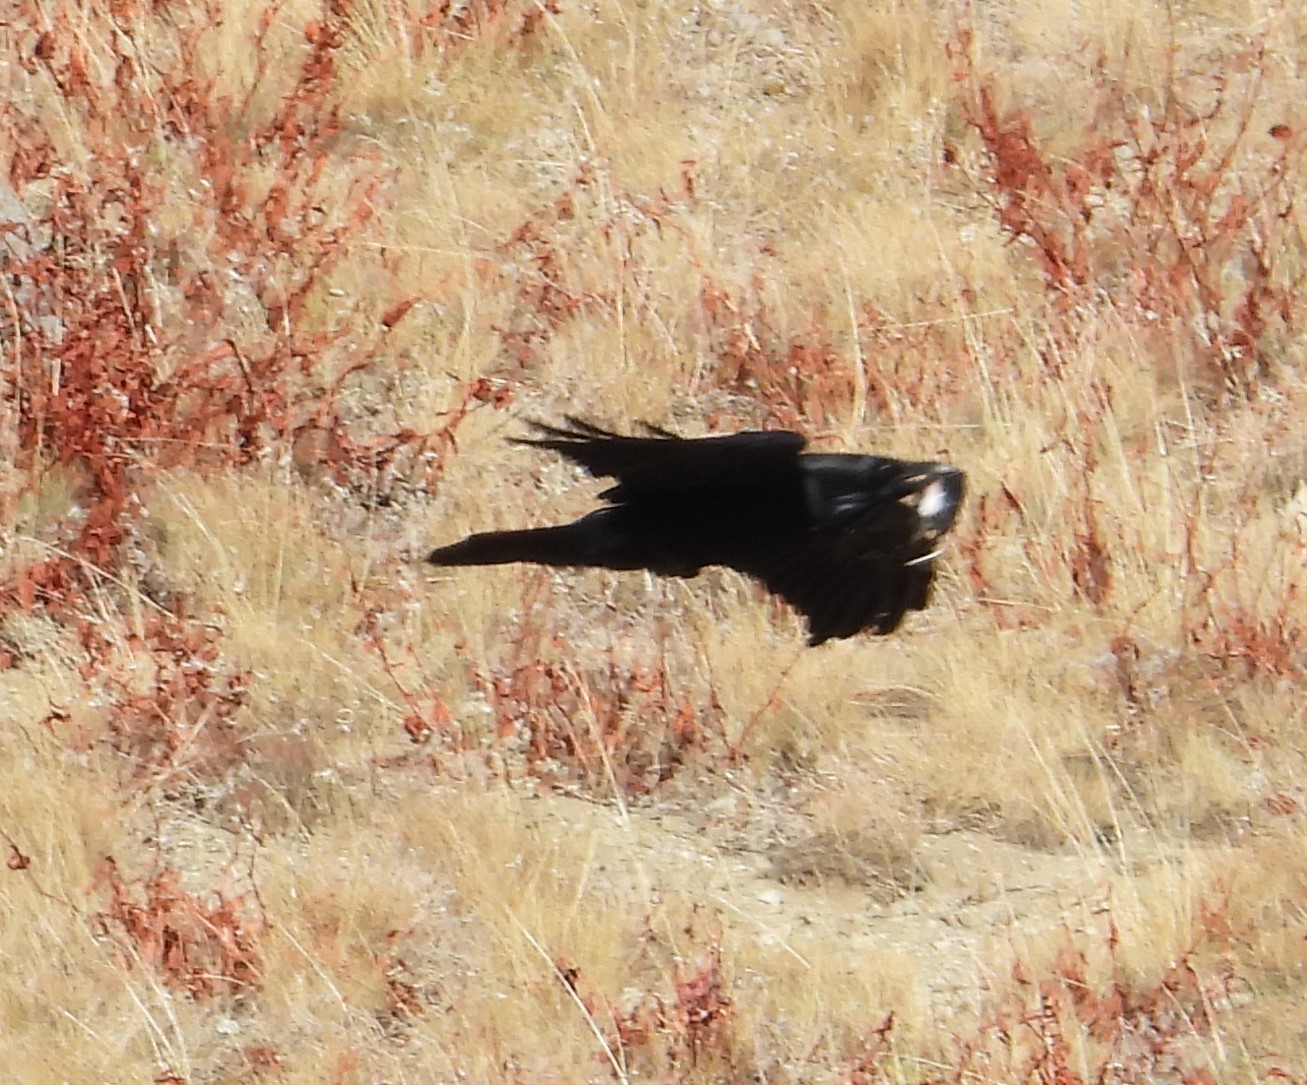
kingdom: Animalia
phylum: Chordata
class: Aves
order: Passeriformes
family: Corvidae
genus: Corvus
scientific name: Corvus corax
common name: Common raven
